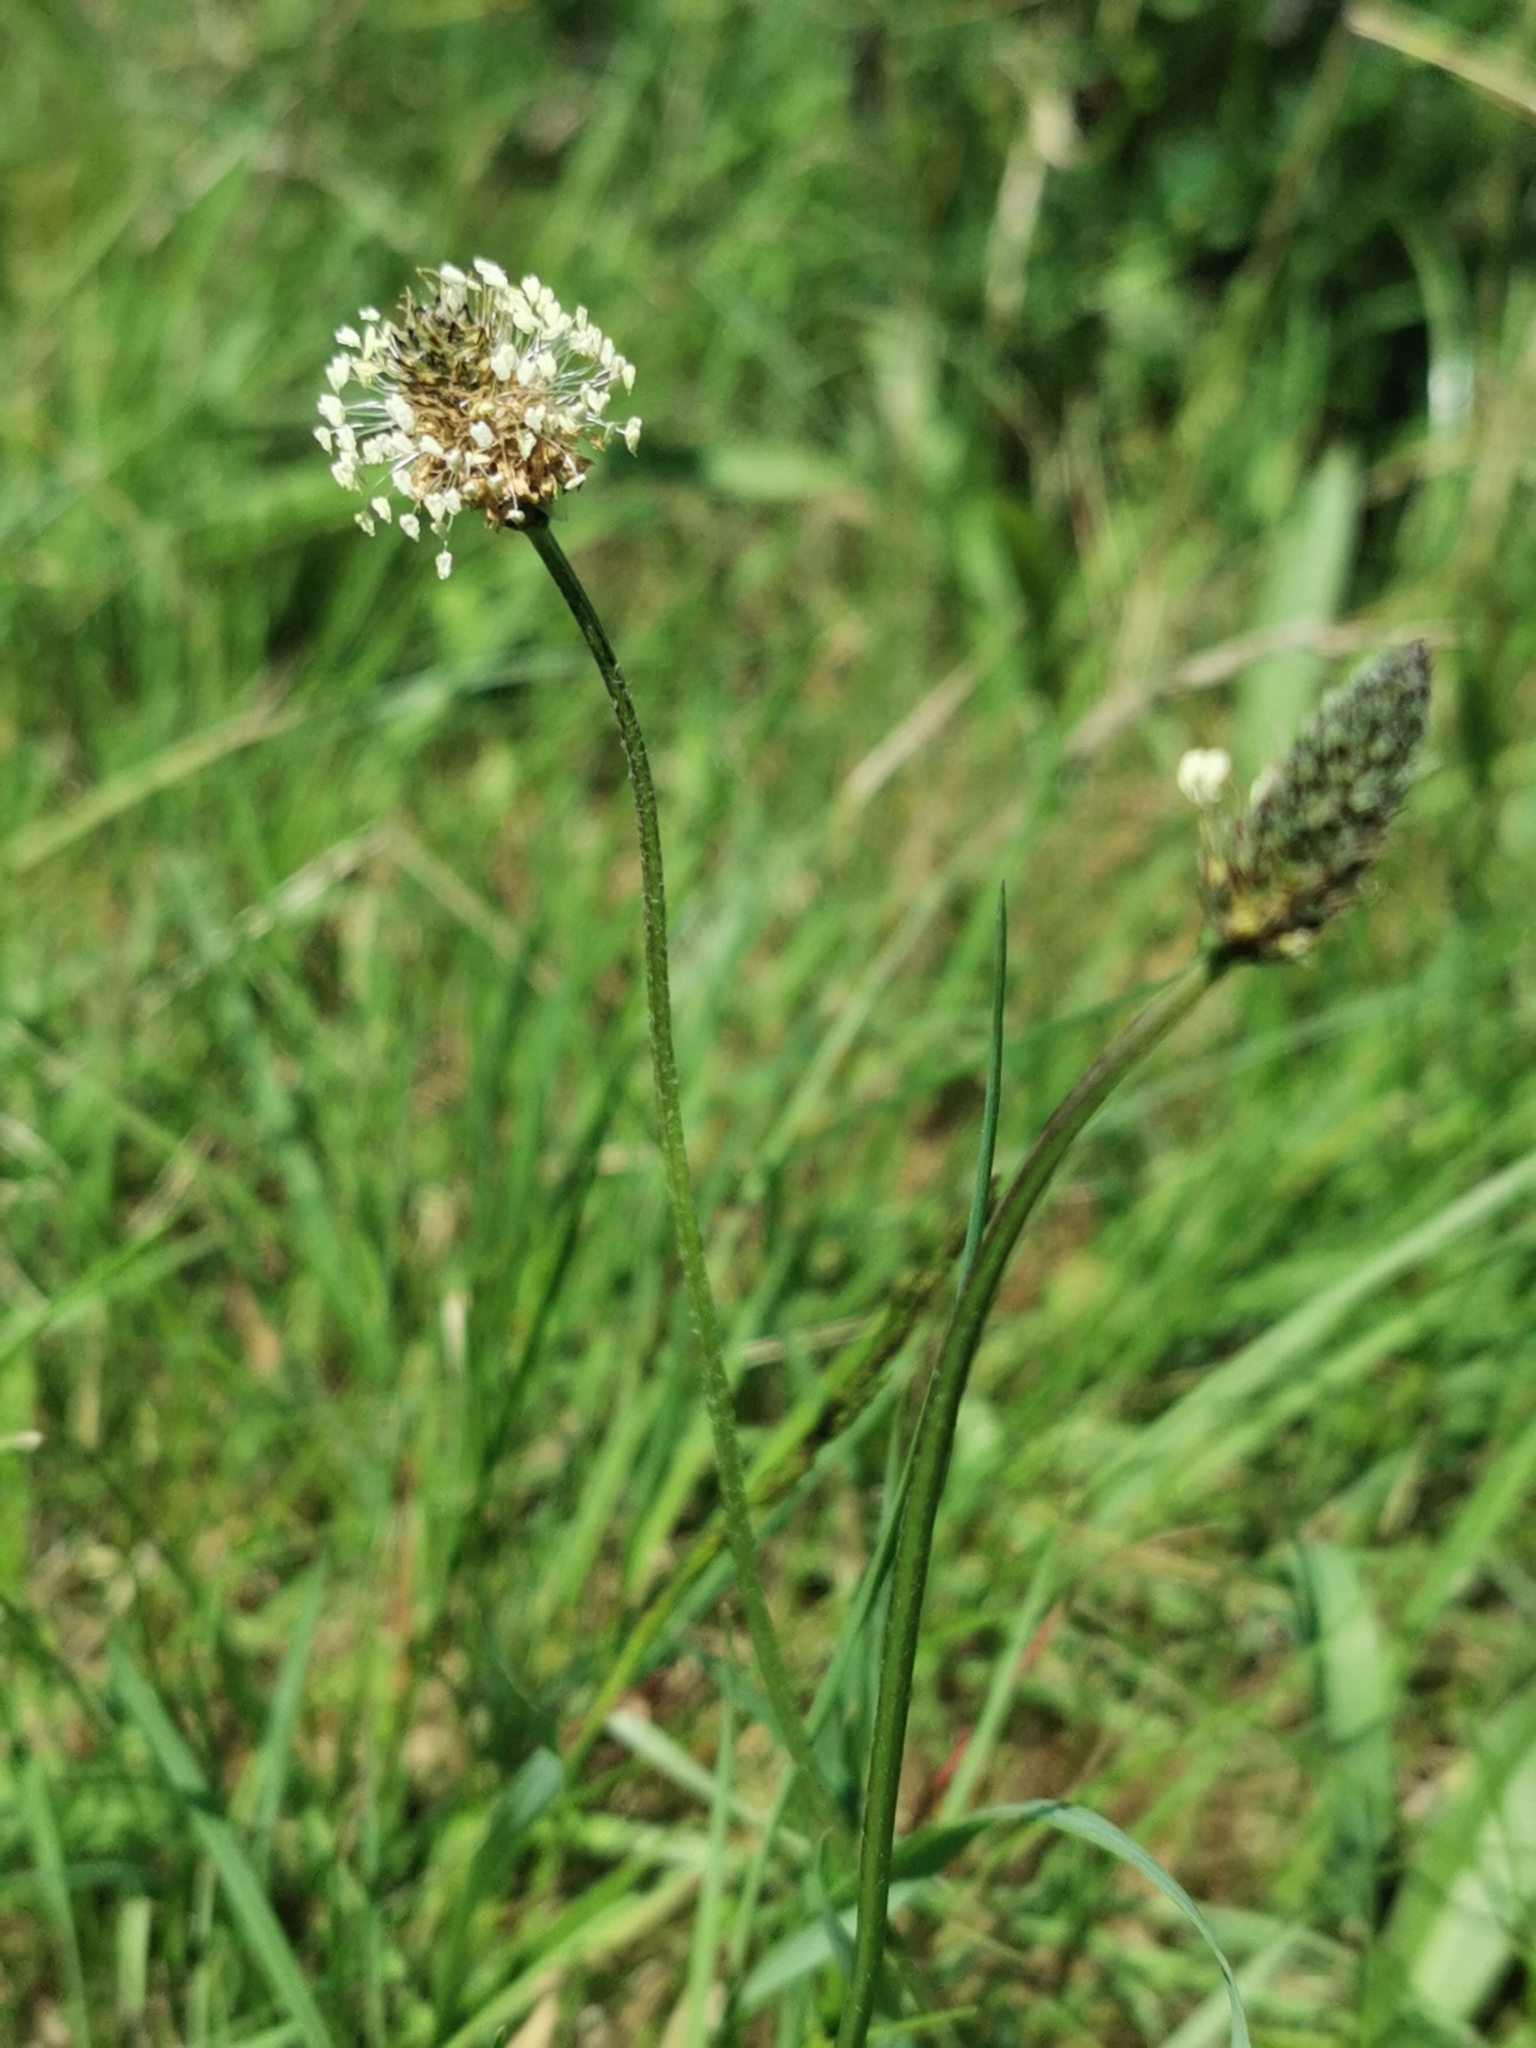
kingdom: Plantae
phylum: Tracheophyta
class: Magnoliopsida
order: Lamiales
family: Plantaginaceae
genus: Plantago
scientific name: Plantago lanceolata
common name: Ribwort plantain
